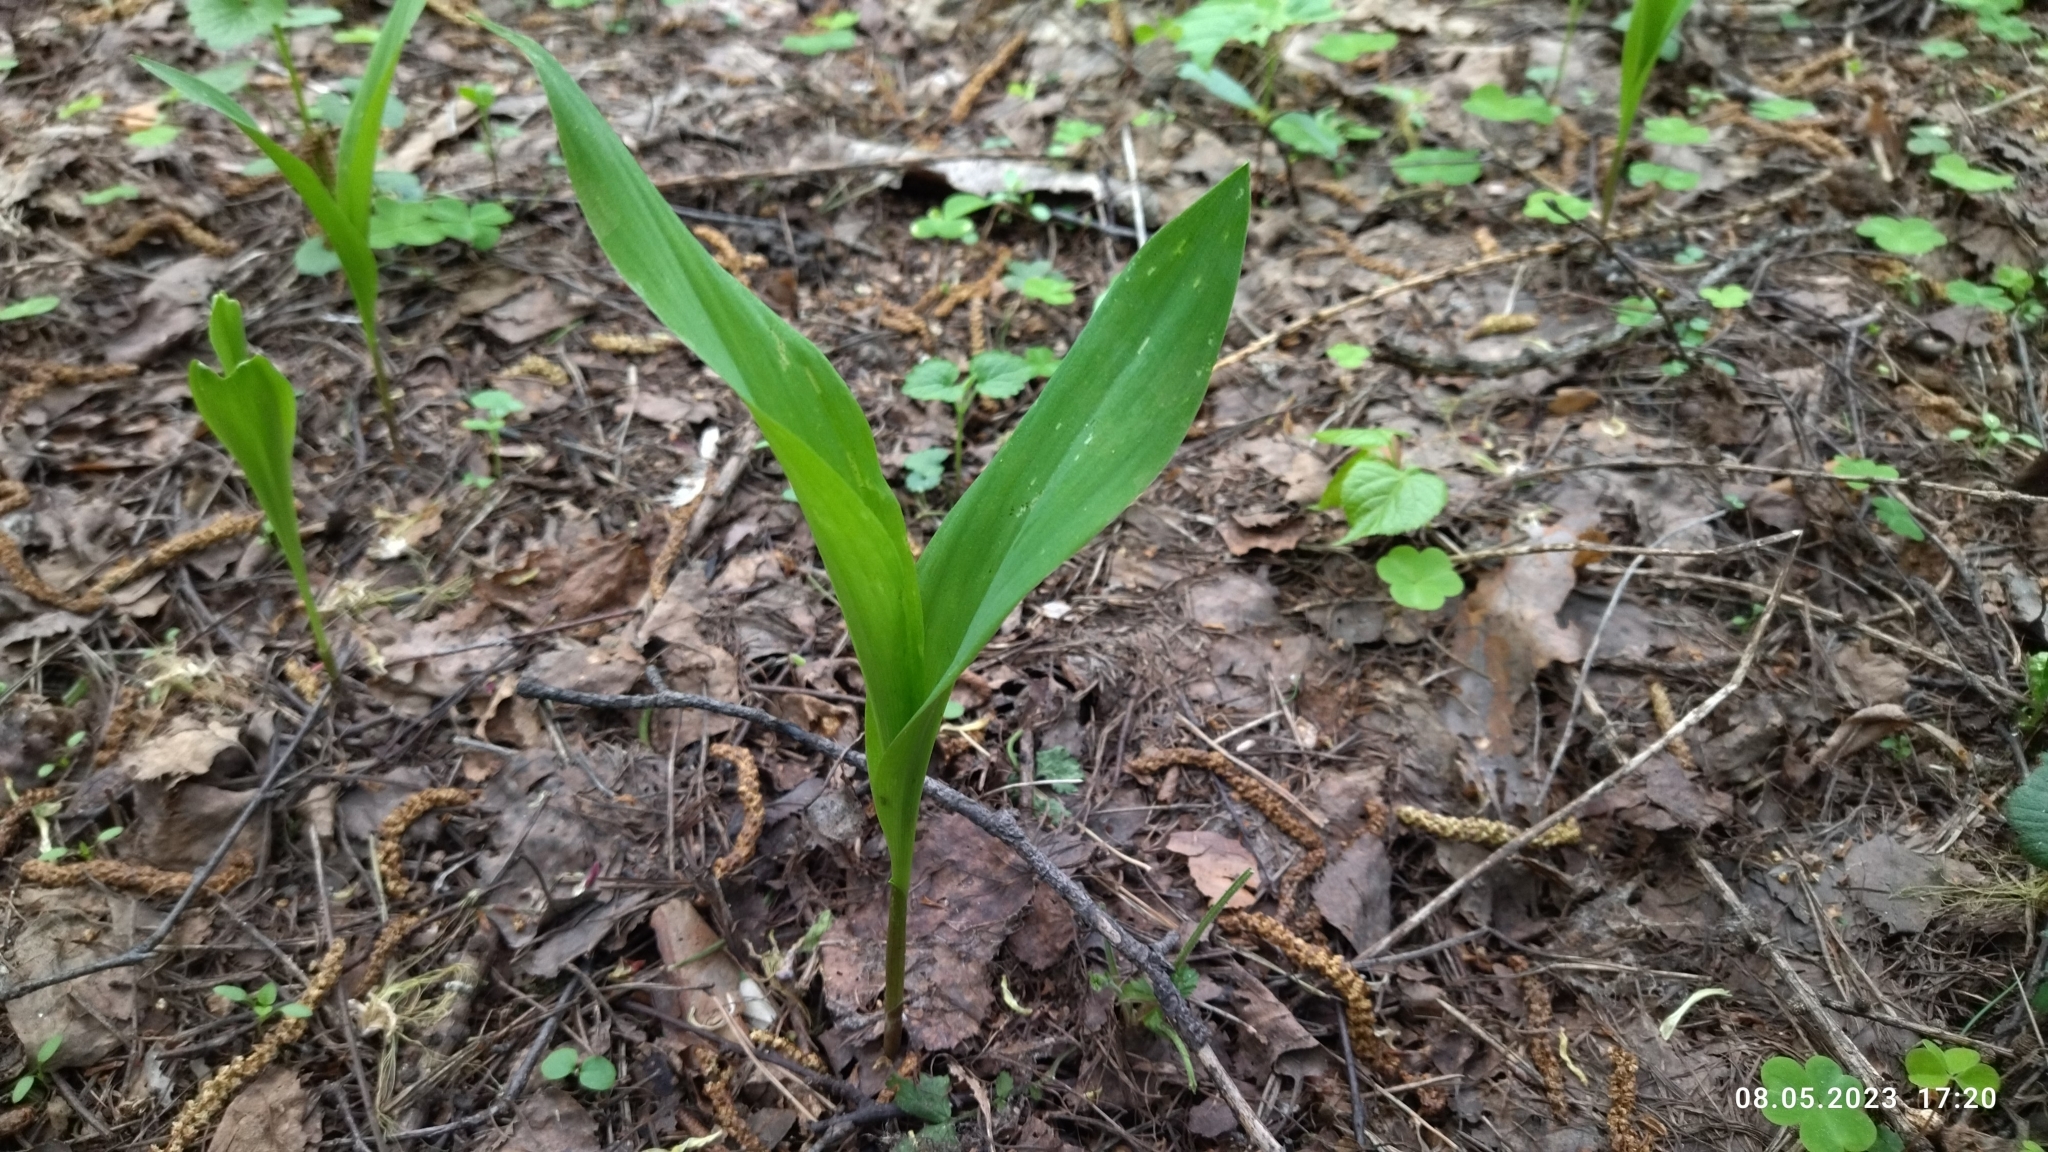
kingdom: Plantae
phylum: Tracheophyta
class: Liliopsida
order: Asparagales
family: Asparagaceae
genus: Convallaria
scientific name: Convallaria majalis
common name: Lily-of-the-valley
